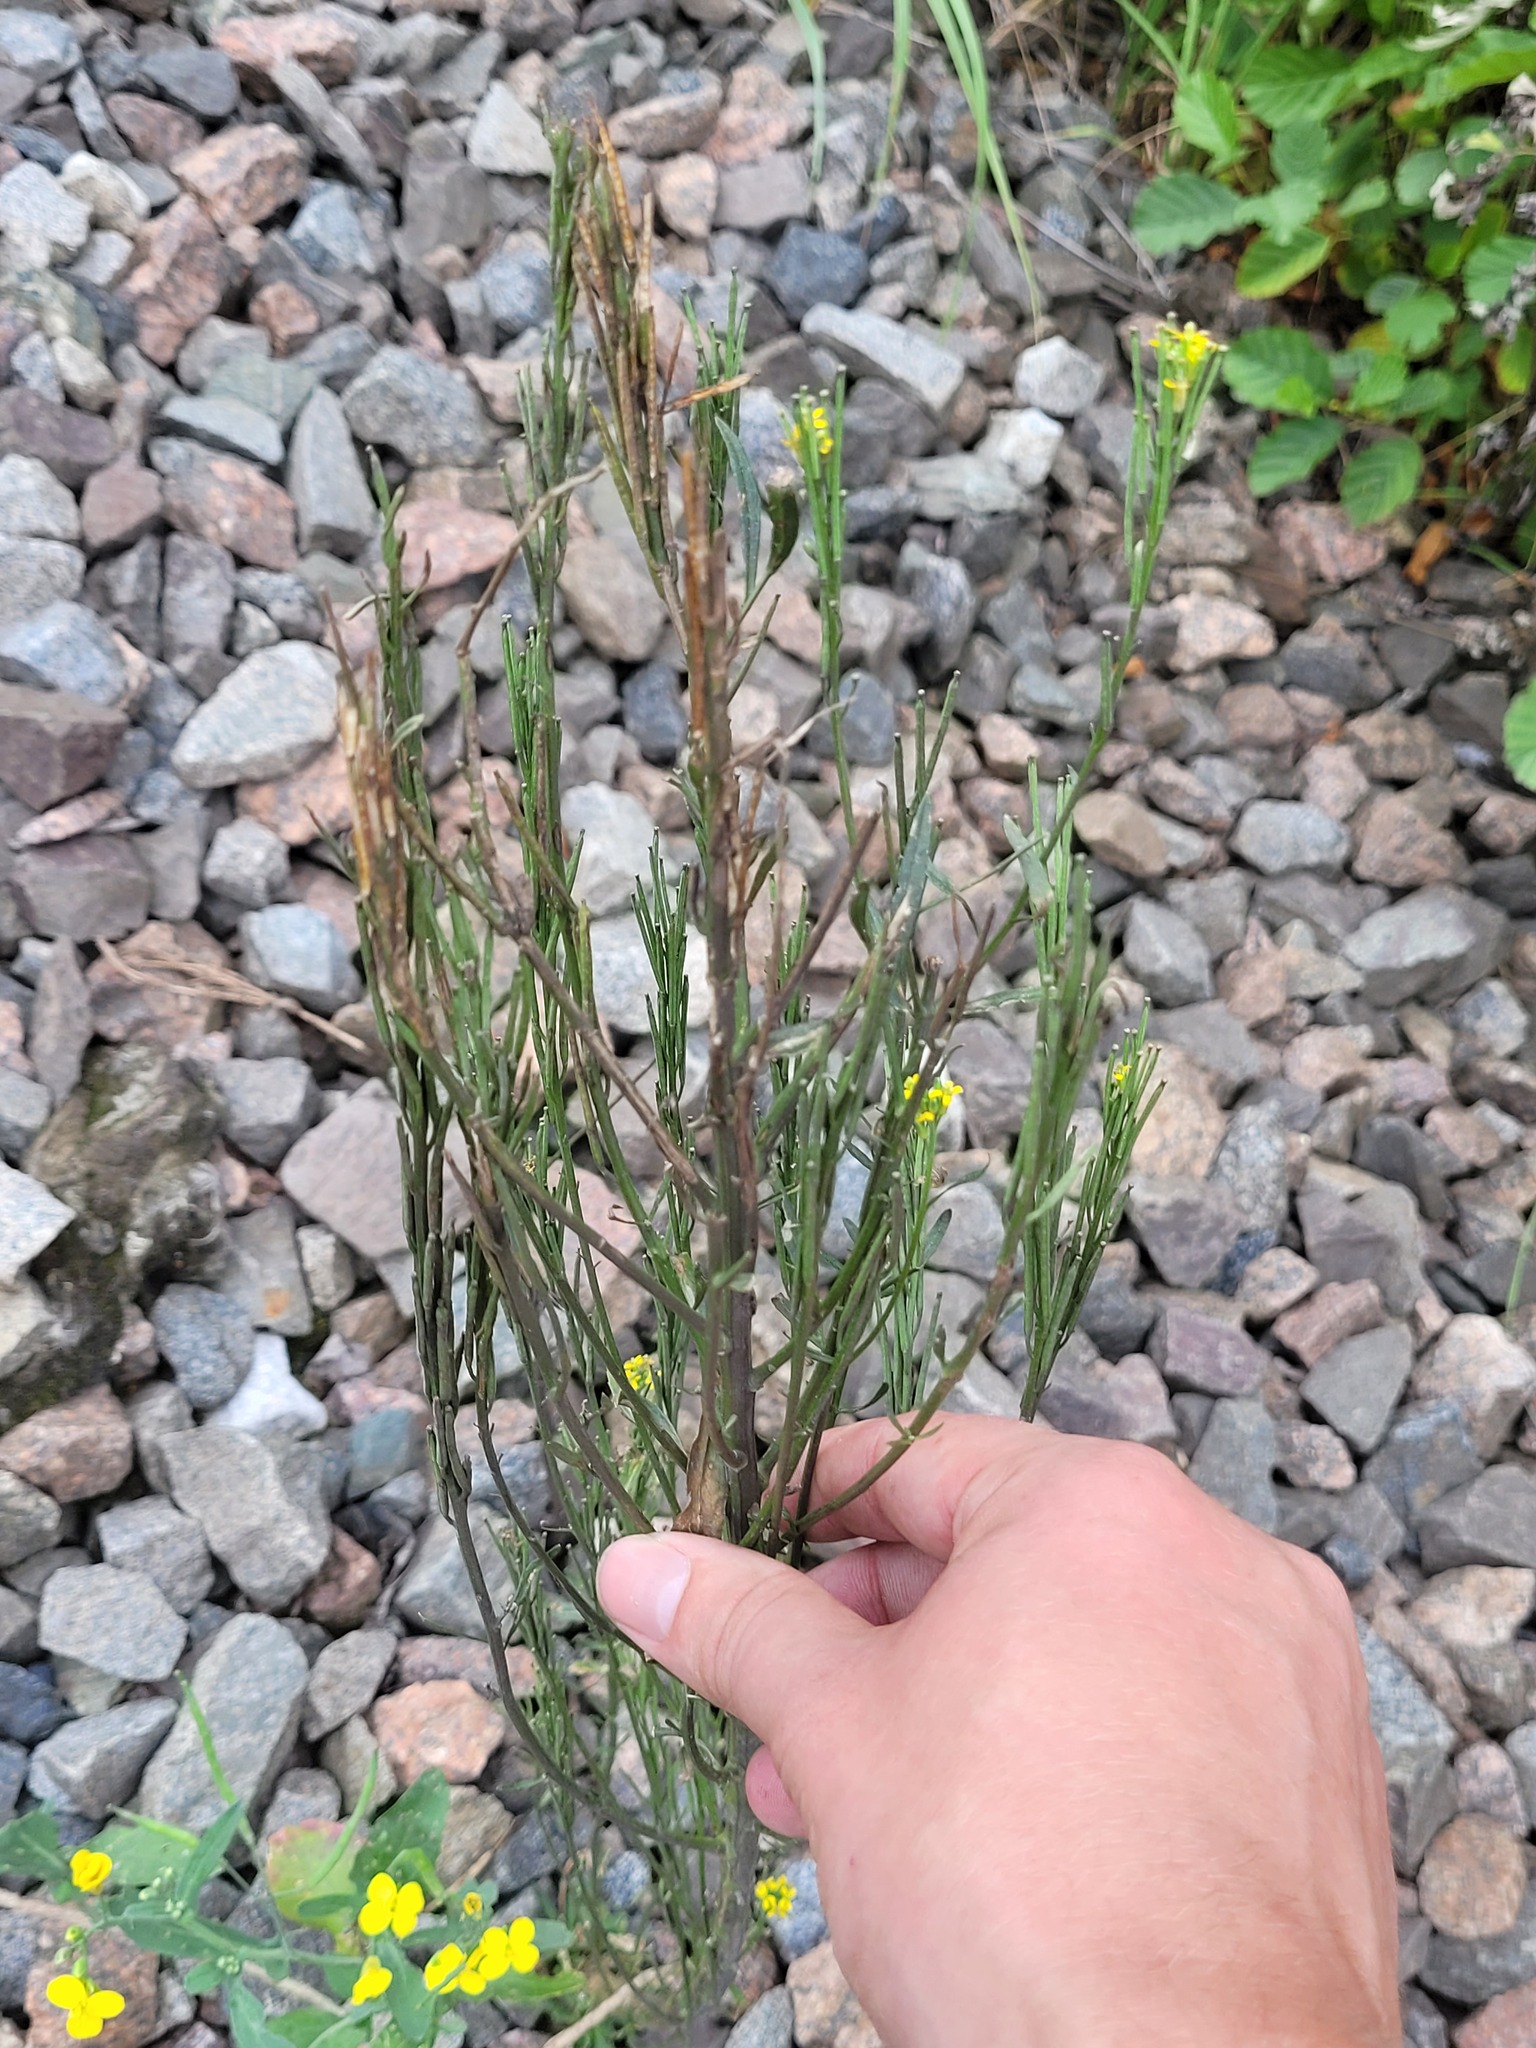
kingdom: Plantae
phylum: Tracheophyta
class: Magnoliopsida
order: Brassicales
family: Brassicaceae
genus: Erysimum
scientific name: Erysimum hieraciifolium
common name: European wallflower
